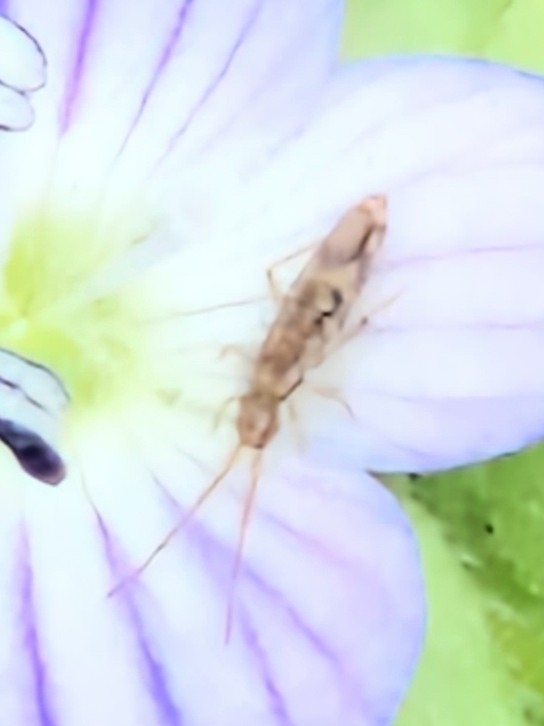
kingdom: Animalia
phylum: Arthropoda
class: Collembola
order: Entomobryomorpha
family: Entomobryidae
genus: Entomobrya
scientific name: Entomobrya intermedia
